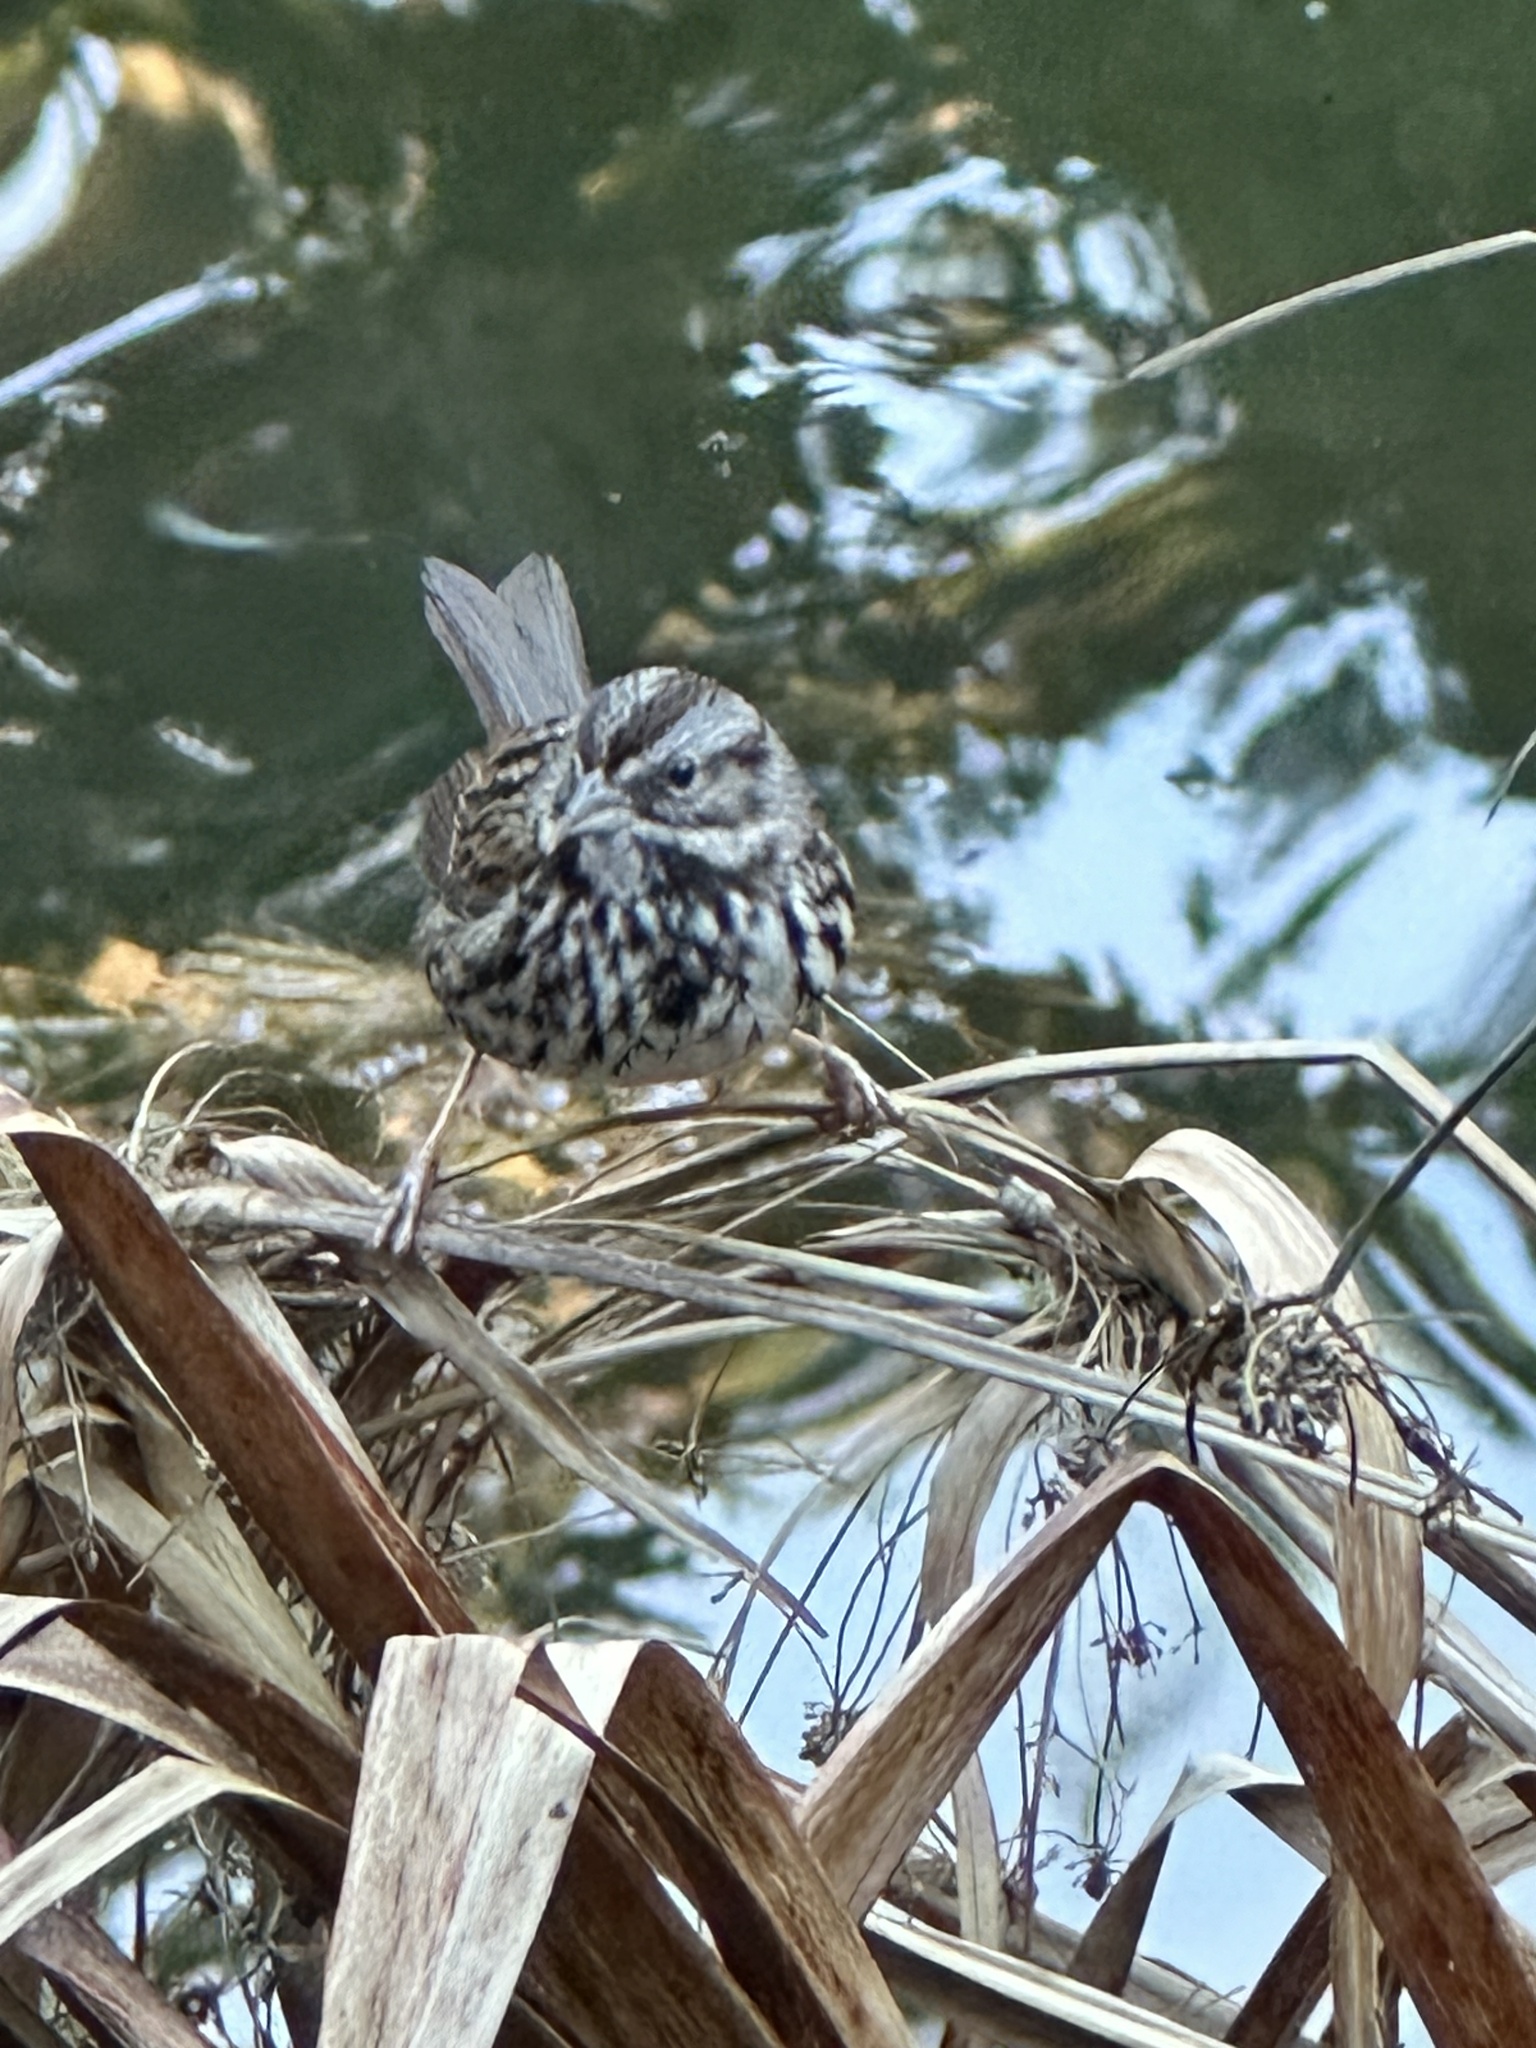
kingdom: Animalia
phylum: Chordata
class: Aves
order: Passeriformes
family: Passerellidae
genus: Melospiza
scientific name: Melospiza melodia
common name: Song sparrow
